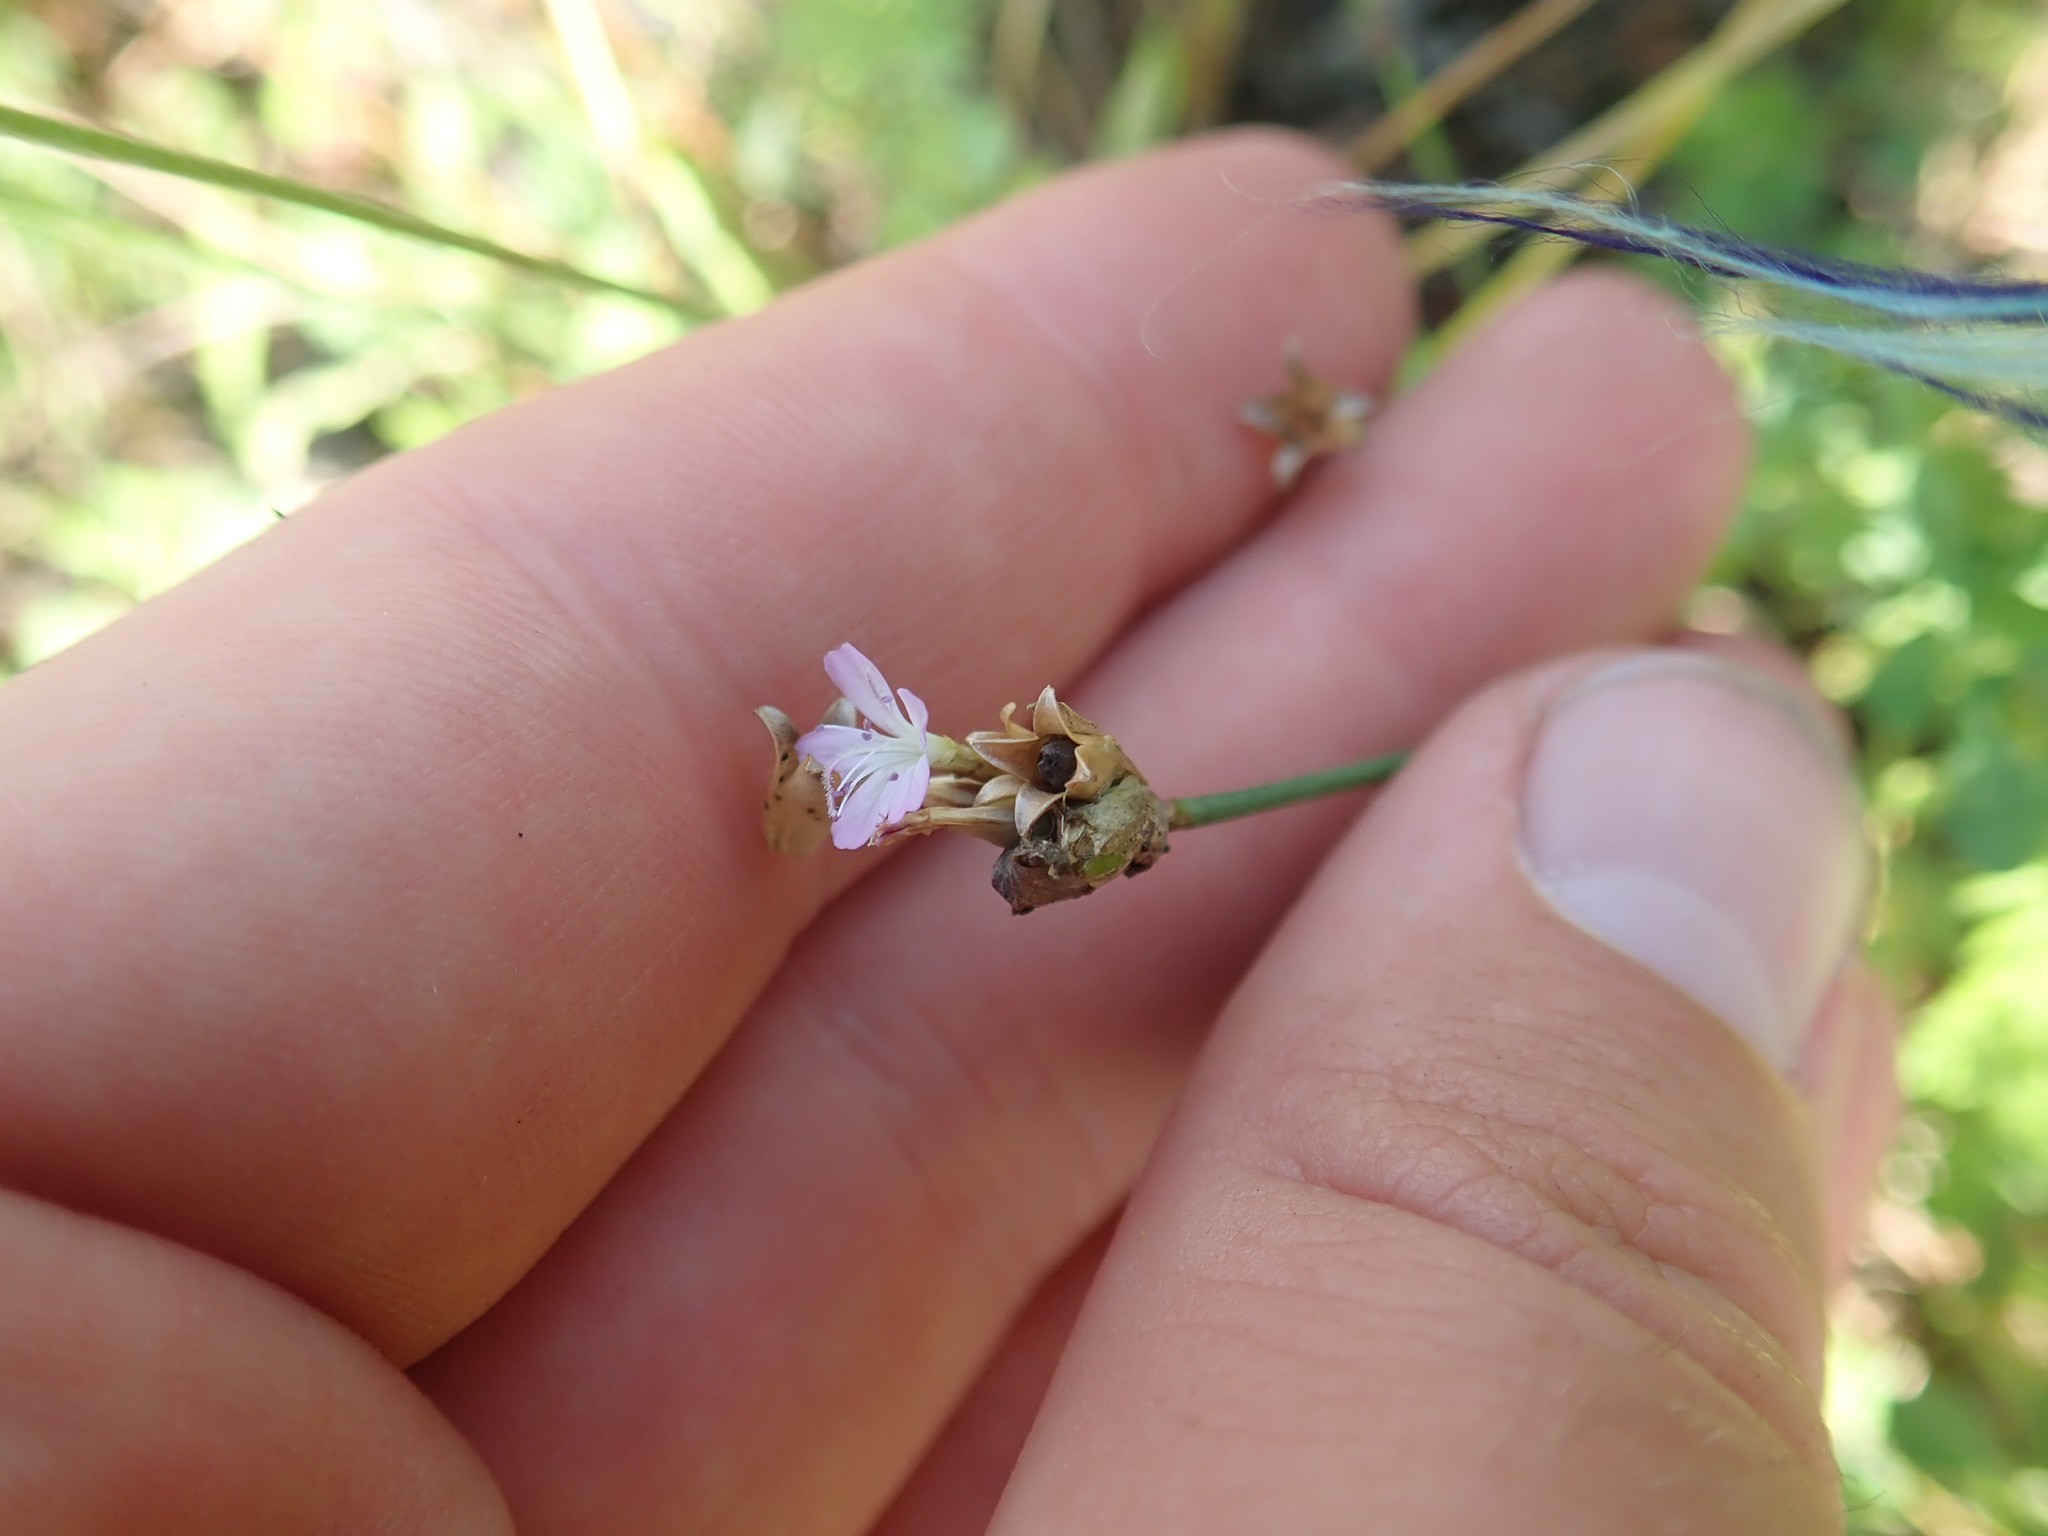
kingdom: Plantae
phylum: Tracheophyta
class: Magnoliopsida
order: Caryophyllales
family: Caryophyllaceae
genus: Petrorhagia
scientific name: Petrorhagia prolifera
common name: Proliferous pink
